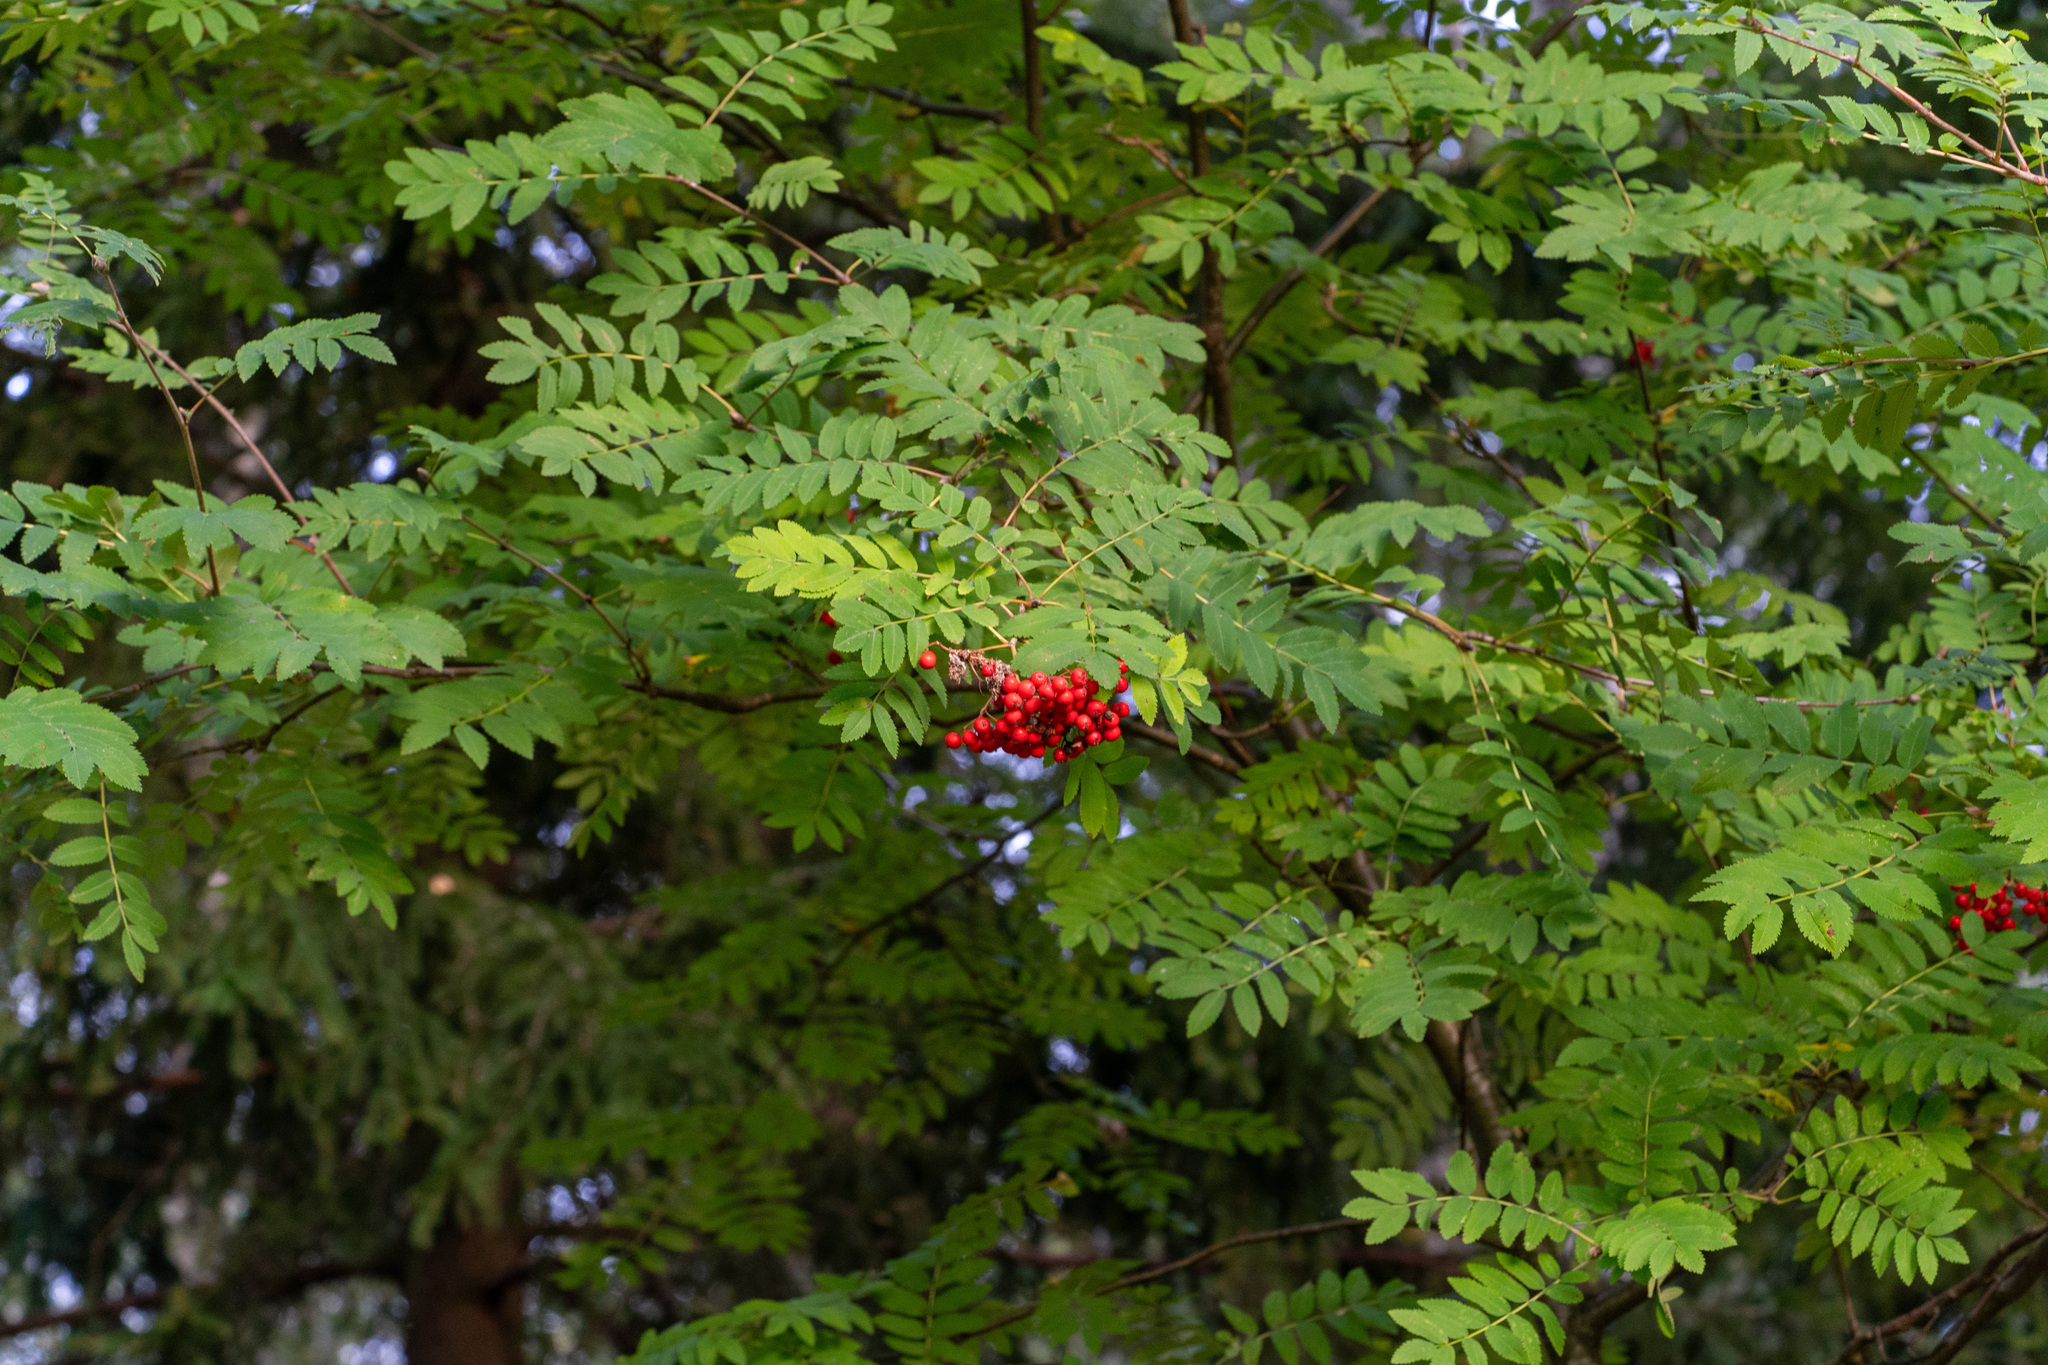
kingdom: Plantae
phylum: Tracheophyta
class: Magnoliopsida
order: Rosales
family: Rosaceae
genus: Sorbus
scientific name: Sorbus aucuparia
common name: Rowan
